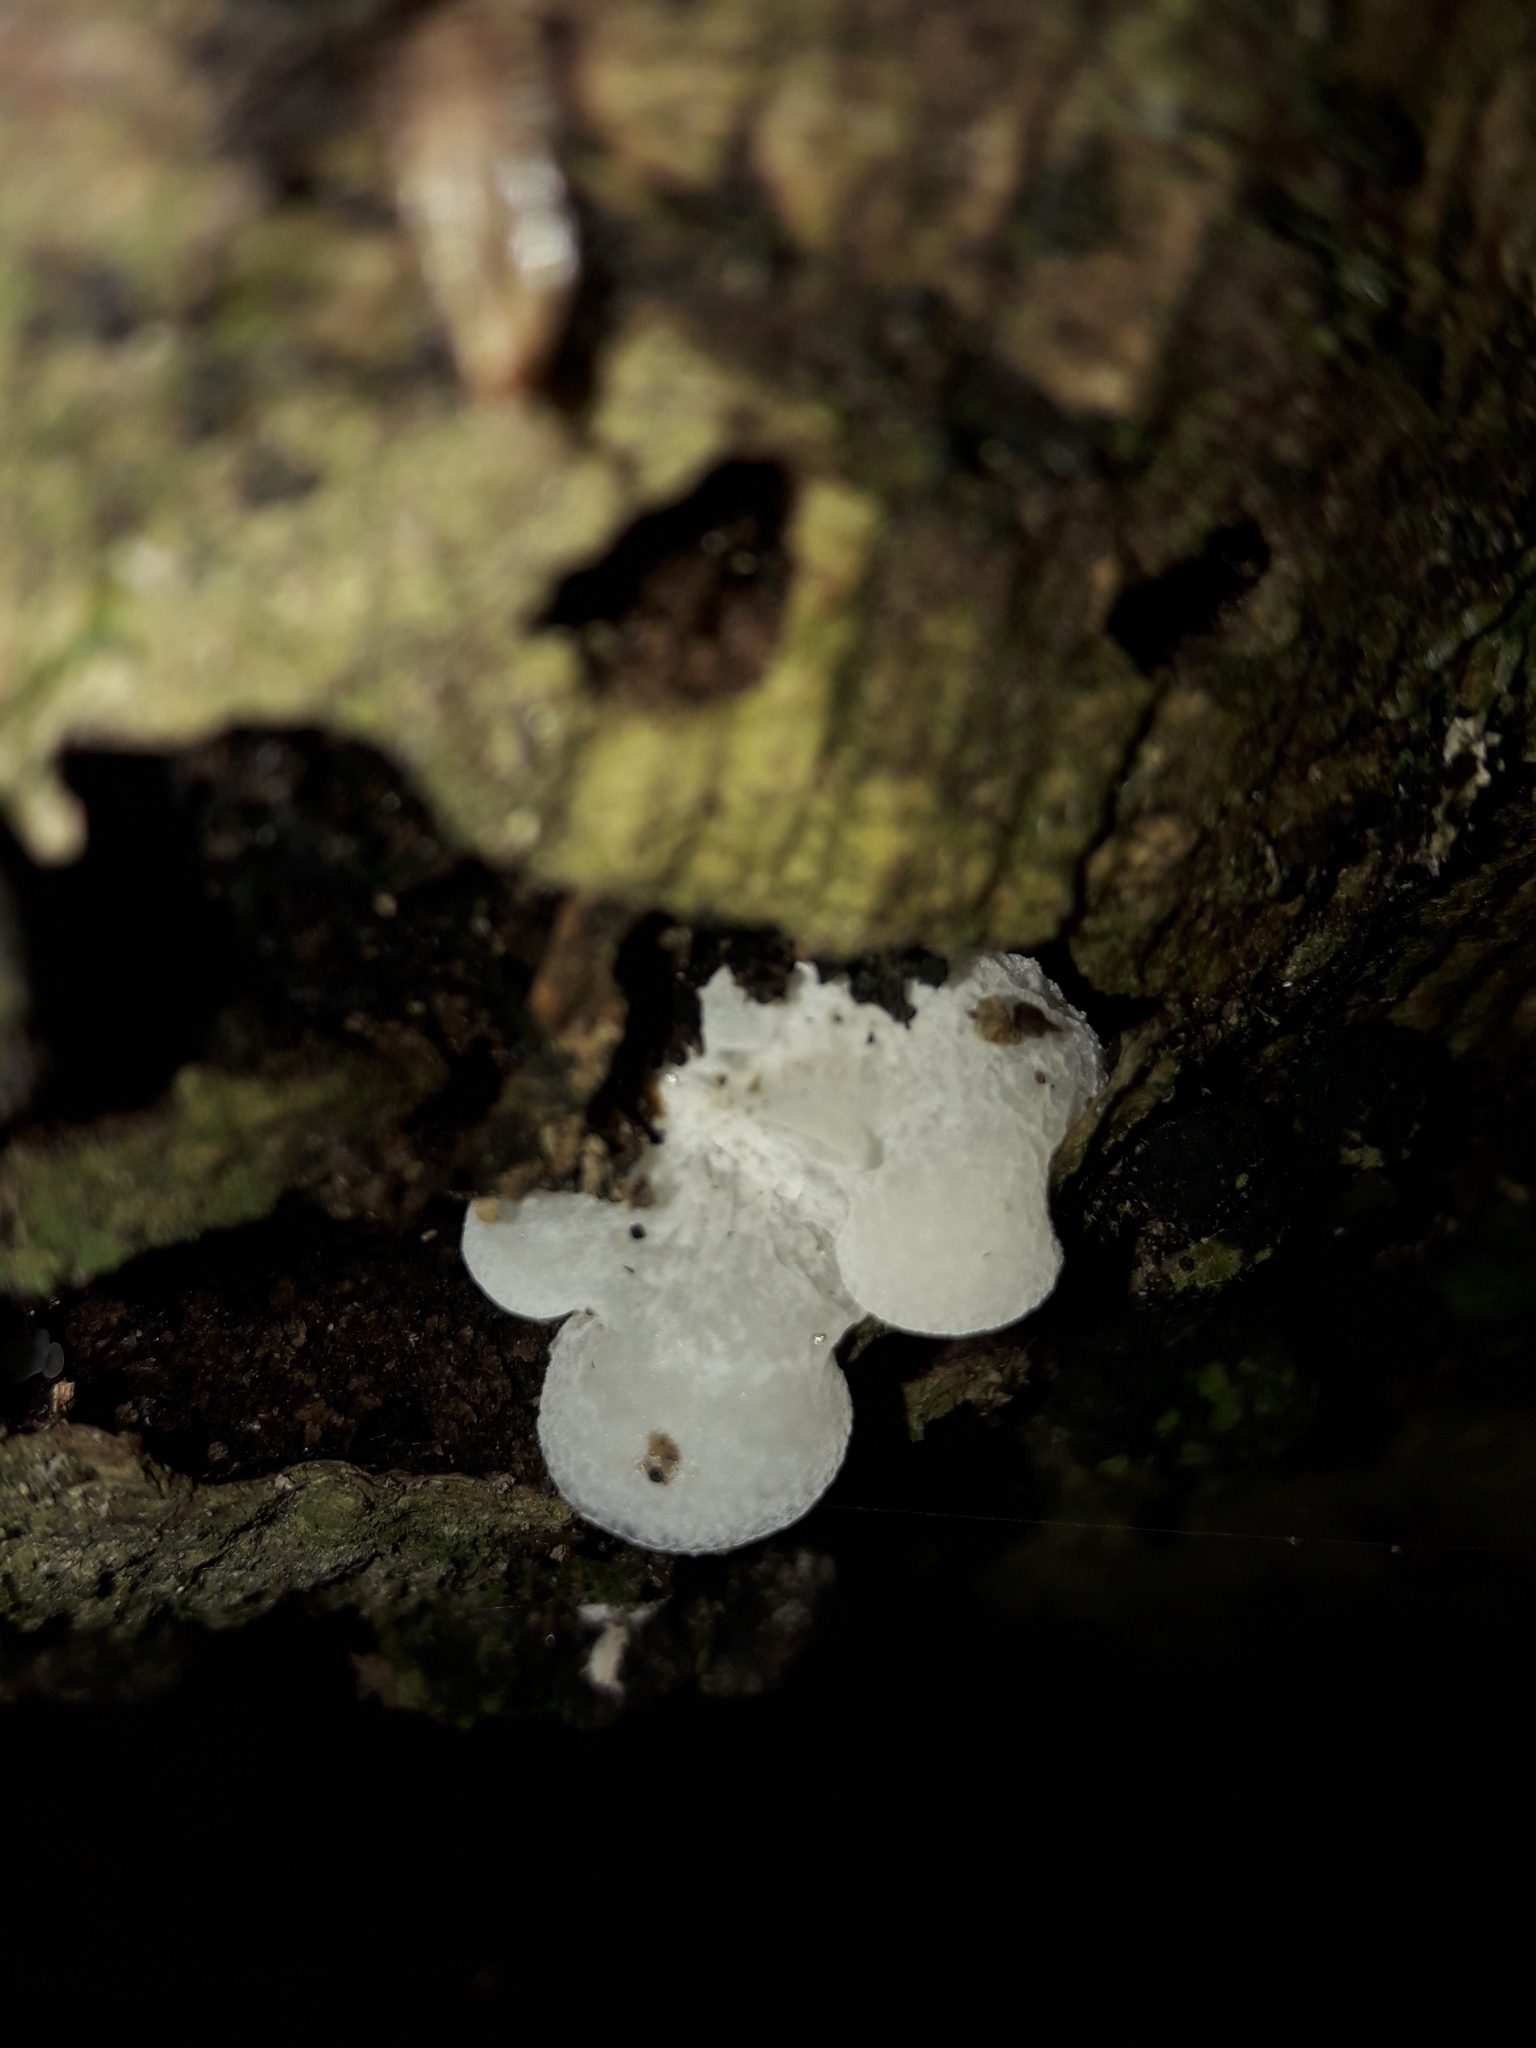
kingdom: Fungi
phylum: Basidiomycota
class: Agaricomycetes
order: Agaricales
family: Mycenaceae
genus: Favolaschia
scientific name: Favolaschia pustulosa
